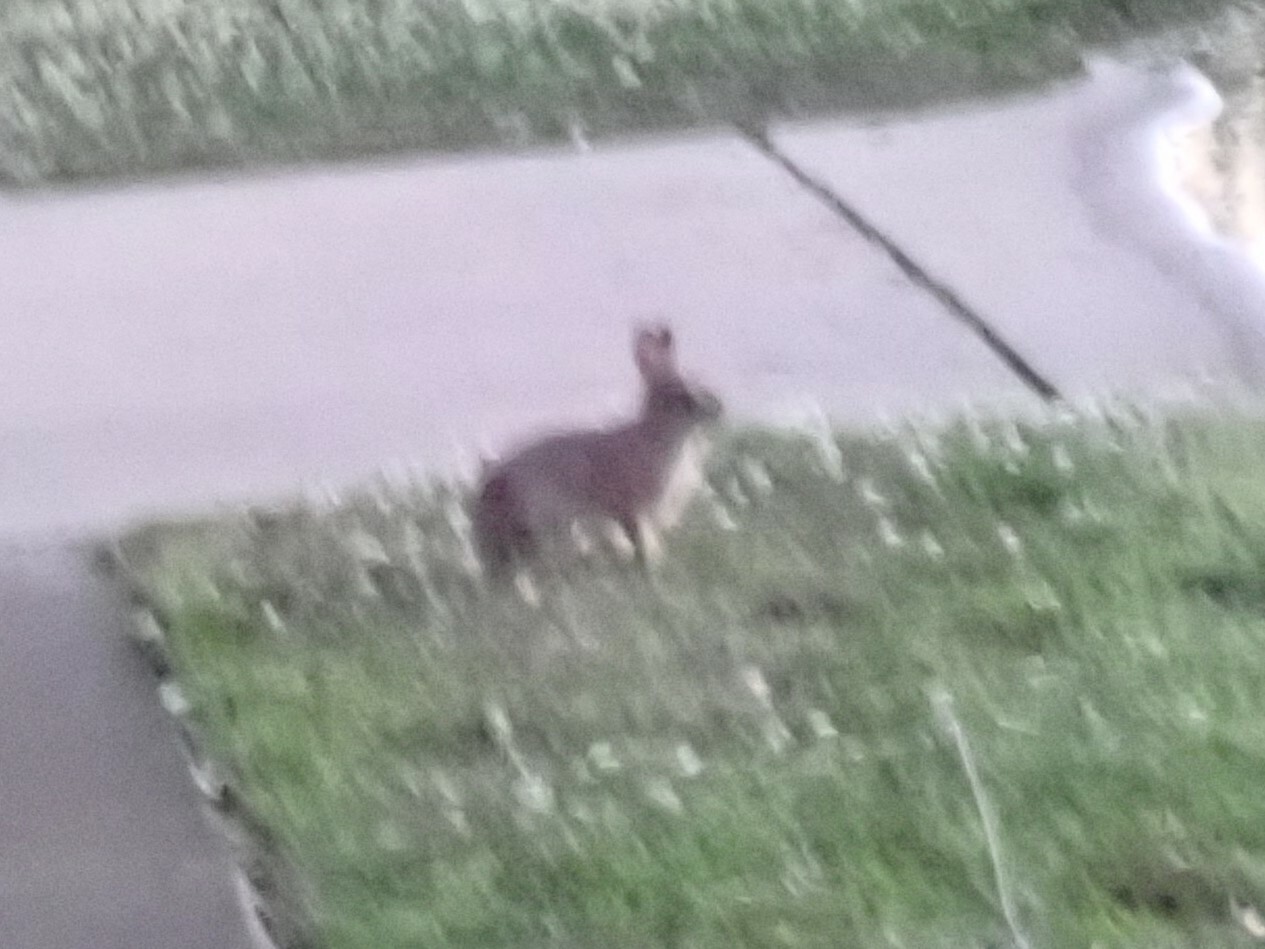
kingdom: Animalia
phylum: Chordata
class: Mammalia
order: Lagomorpha
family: Leporidae
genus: Sylvilagus
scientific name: Sylvilagus floridanus
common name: Eastern cottontail
